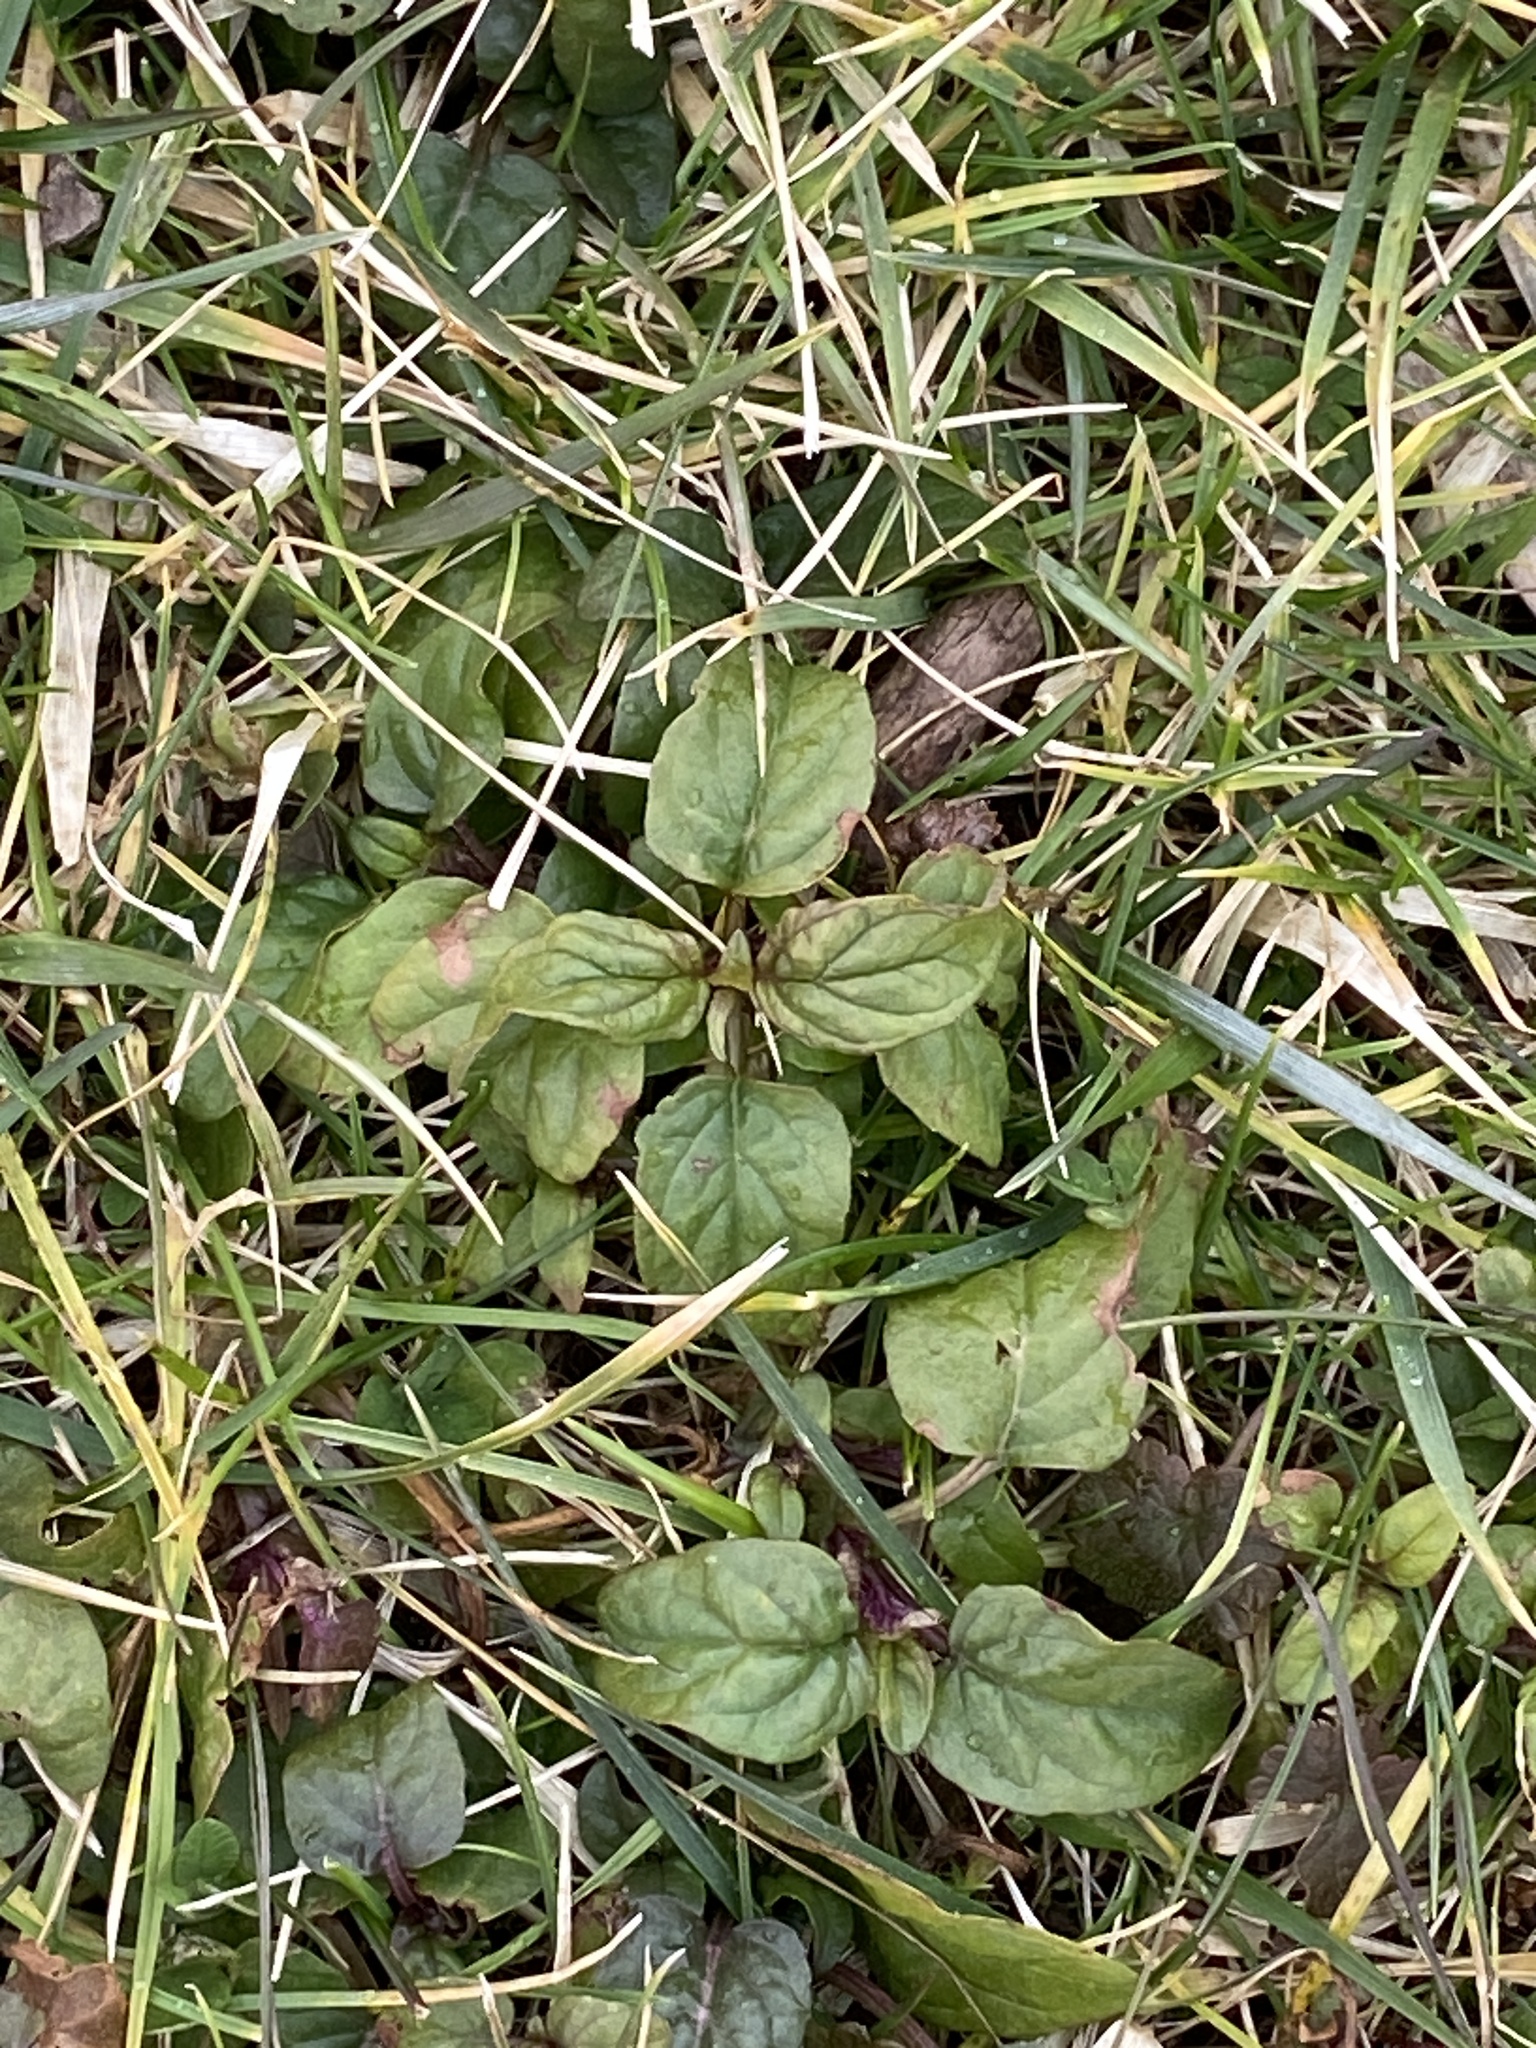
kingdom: Plantae
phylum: Tracheophyta
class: Magnoliopsida
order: Lamiales
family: Lamiaceae
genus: Prunella
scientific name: Prunella vulgaris
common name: Heal-all
